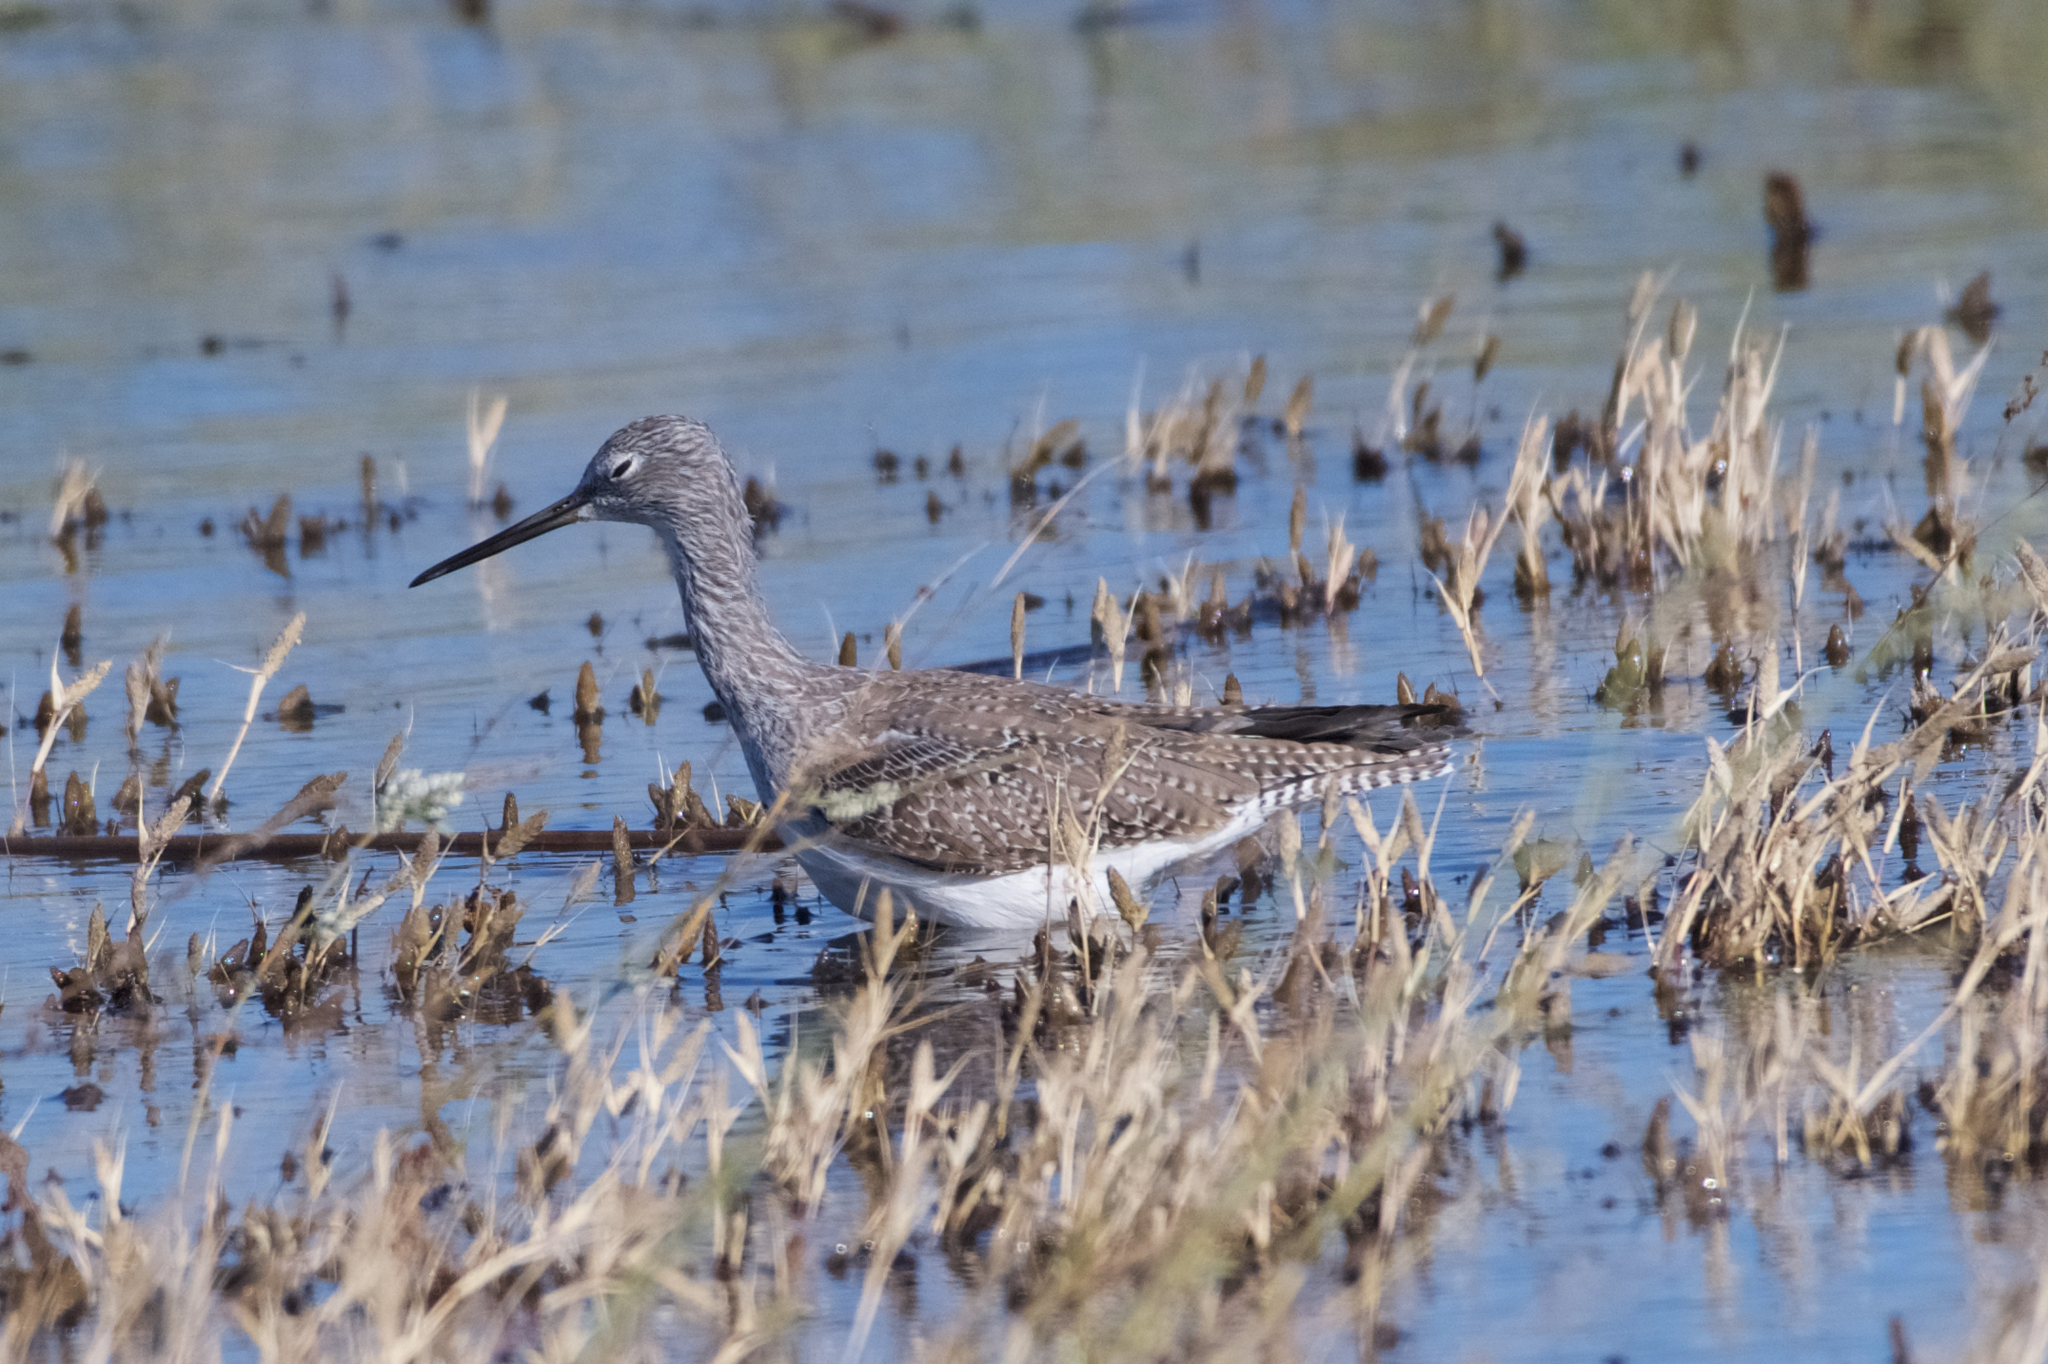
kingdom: Animalia
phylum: Chordata
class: Aves
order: Charadriiformes
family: Scolopacidae
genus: Tringa
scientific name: Tringa melanoleuca
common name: Greater yellowlegs
